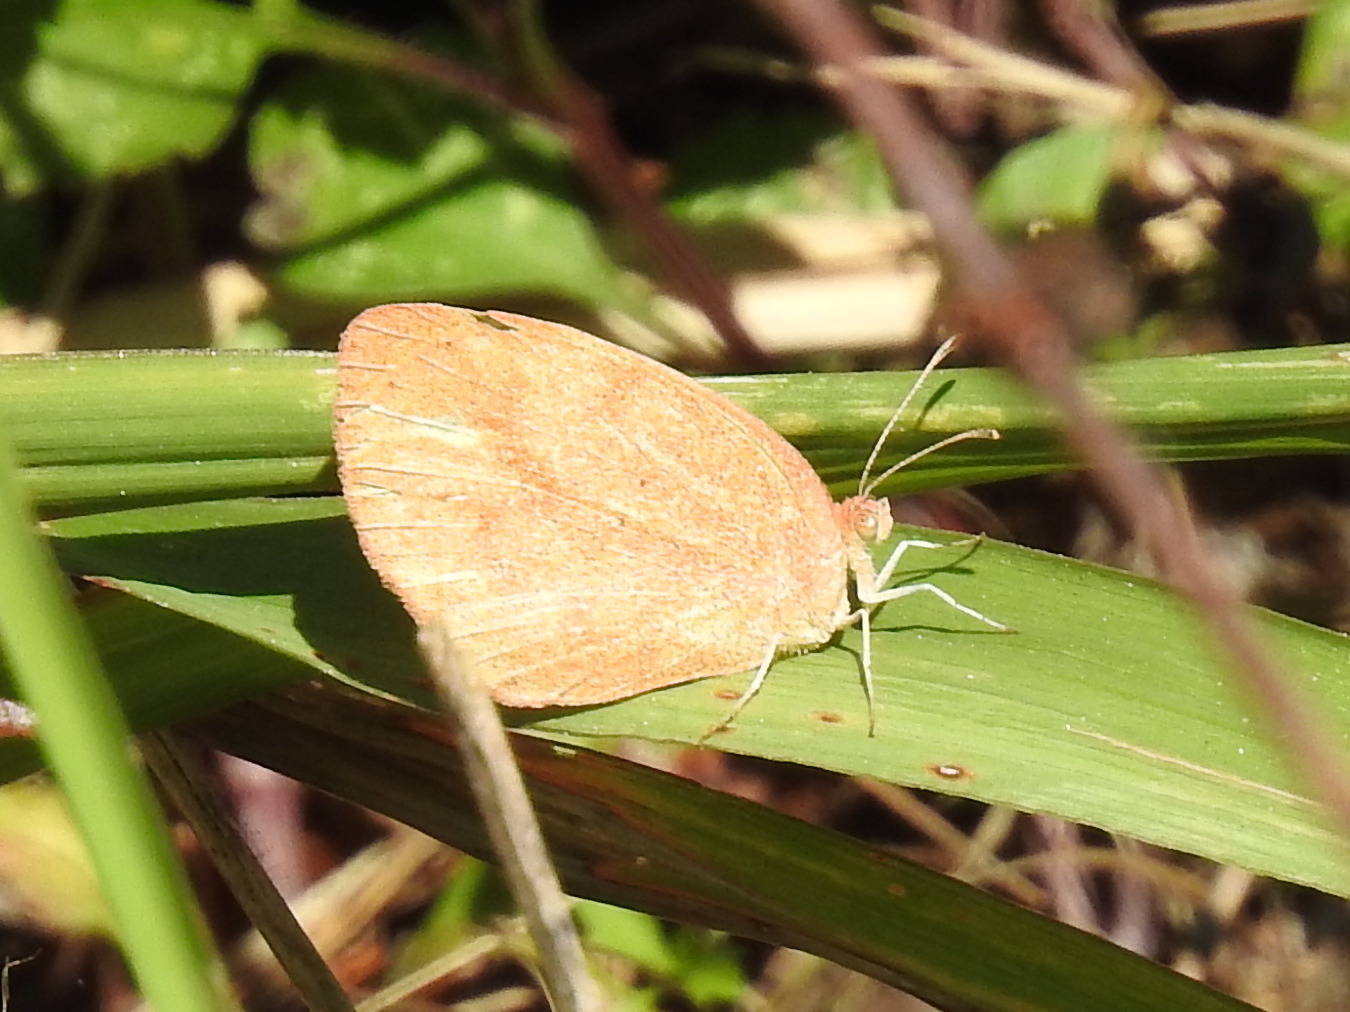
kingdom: Animalia
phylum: Arthropoda
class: Insecta
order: Lepidoptera
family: Pieridae
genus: Eurema
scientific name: Eurema daira
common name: Barred sulphur
